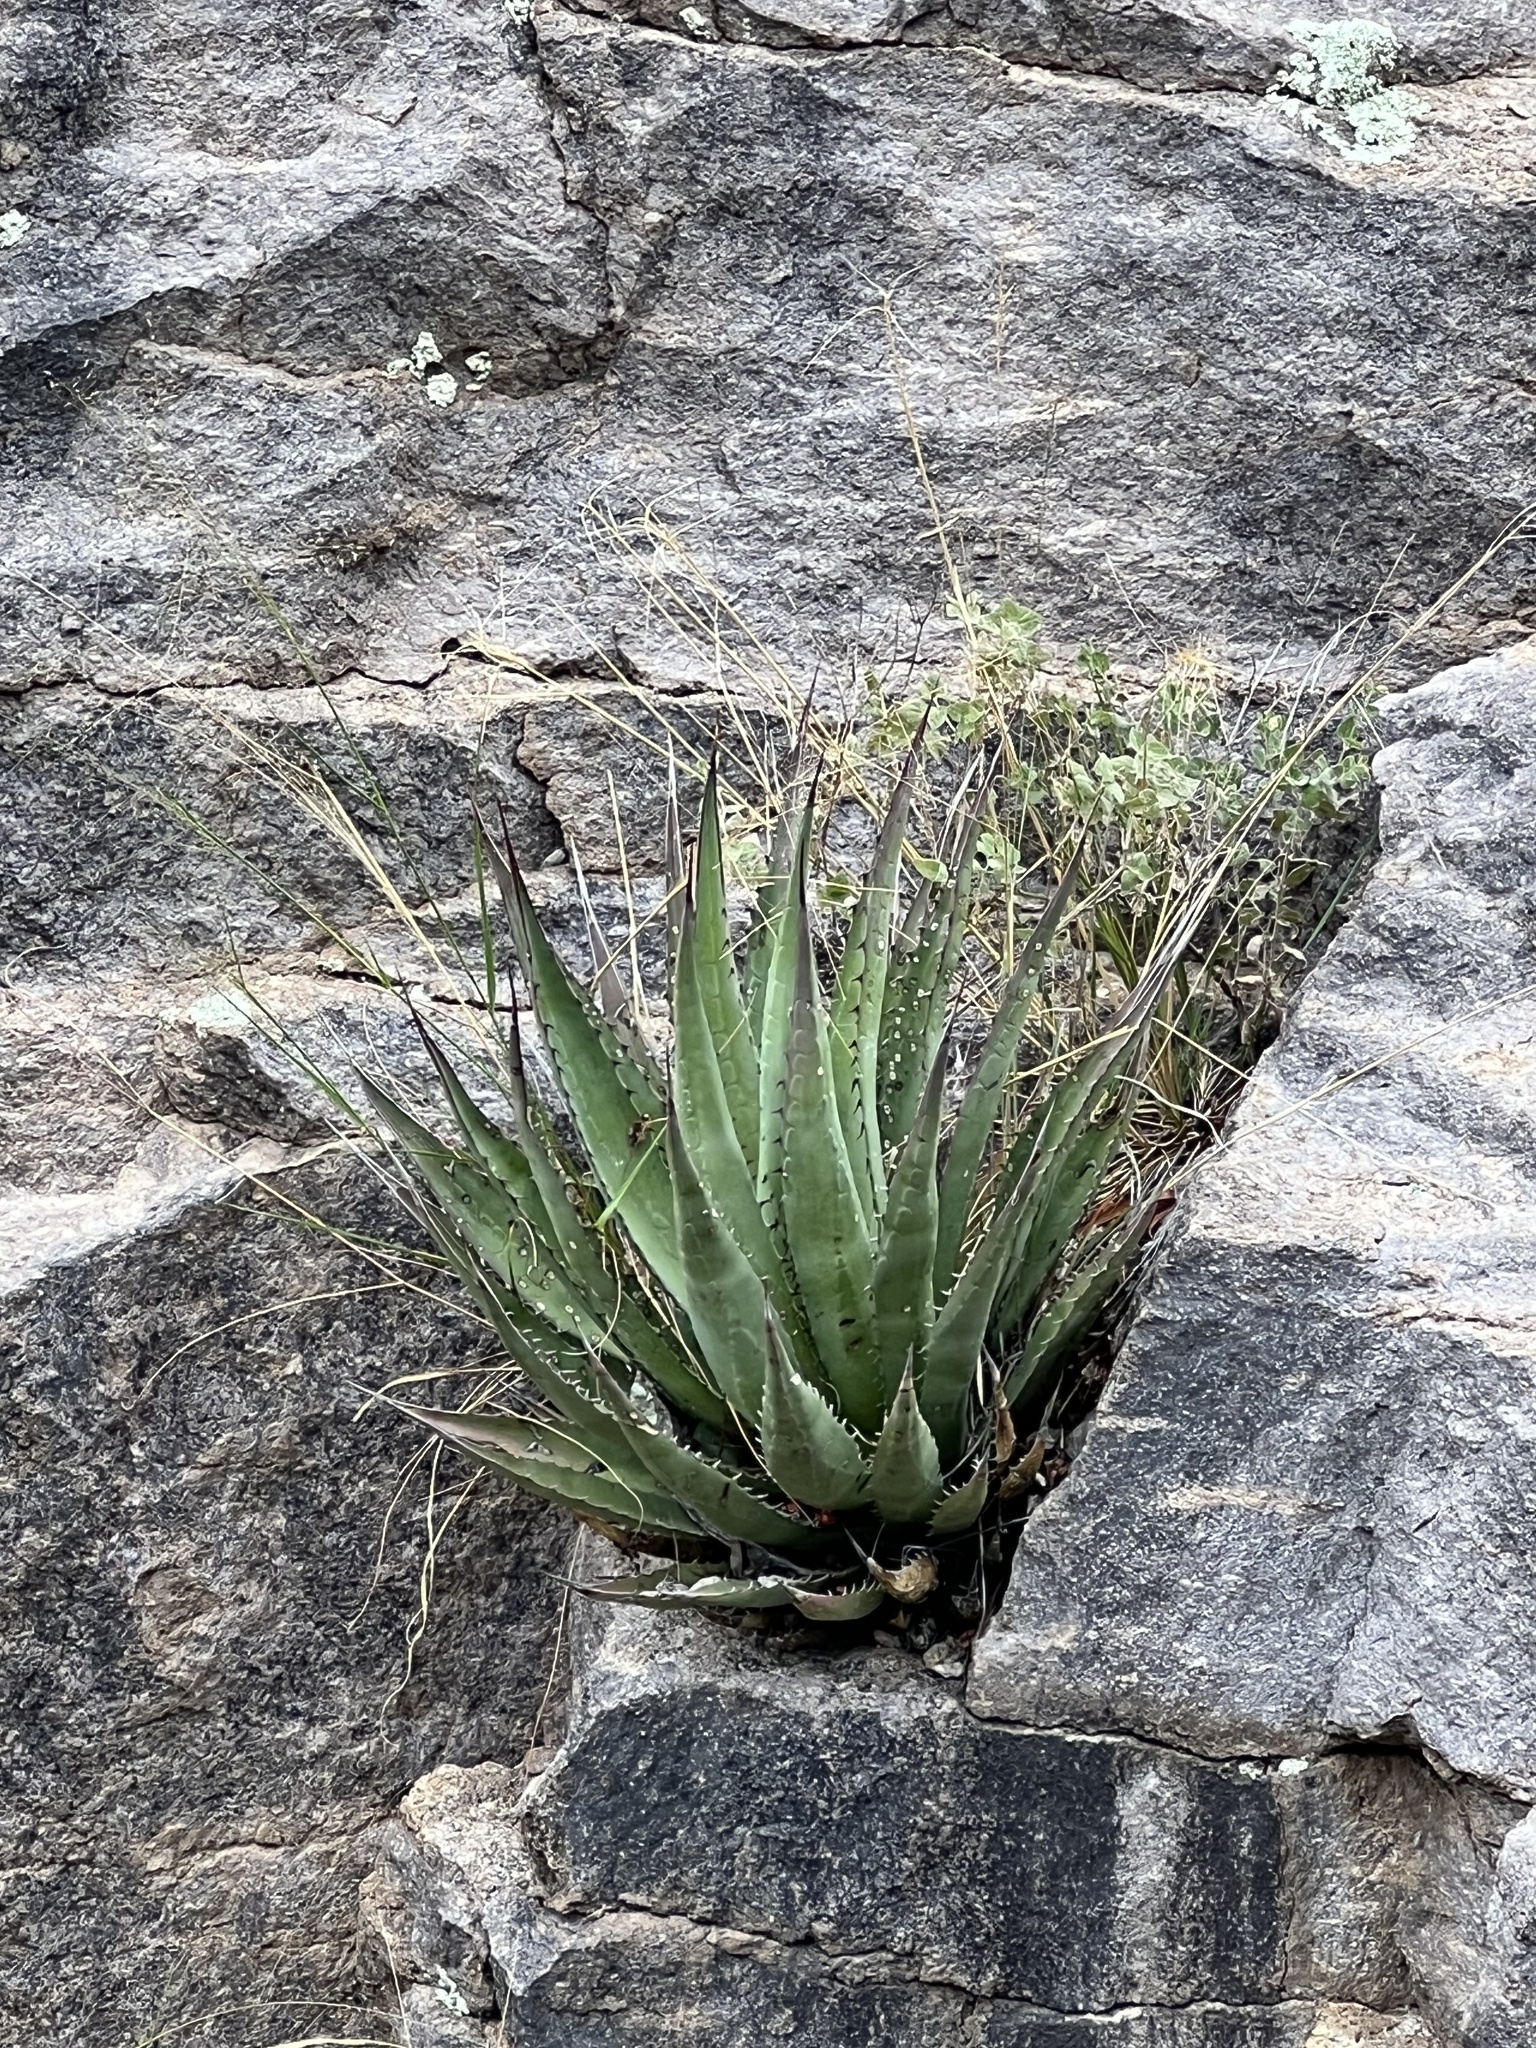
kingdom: Plantae
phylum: Tracheophyta
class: Liliopsida
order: Asparagales
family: Asparagaceae
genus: Agave
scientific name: Agave palmeri
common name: Palmer agave
